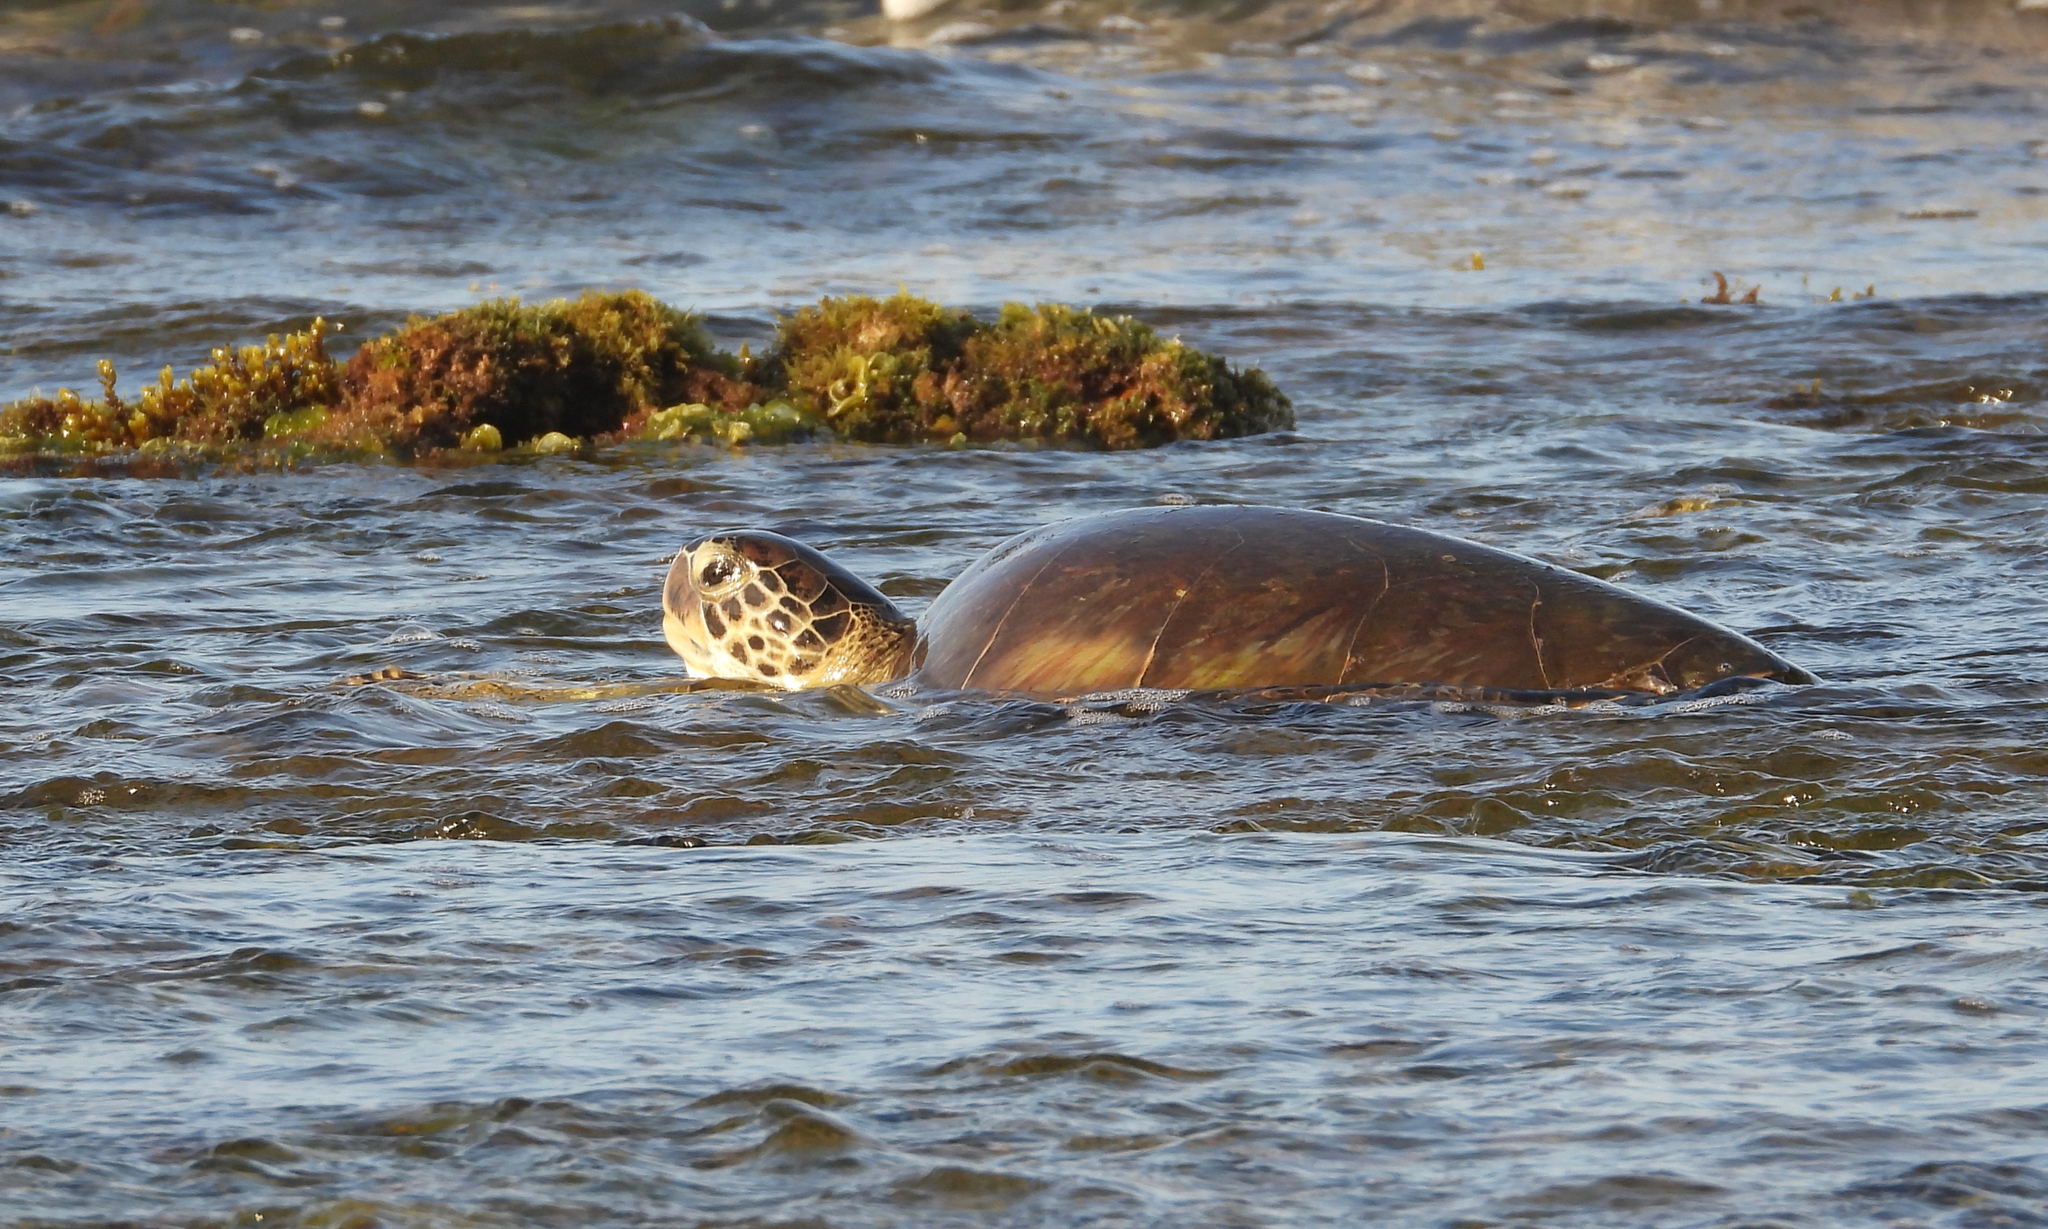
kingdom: Animalia
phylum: Chordata
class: Testudines
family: Cheloniidae
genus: Chelonia
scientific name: Chelonia mydas
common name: Green turtle
